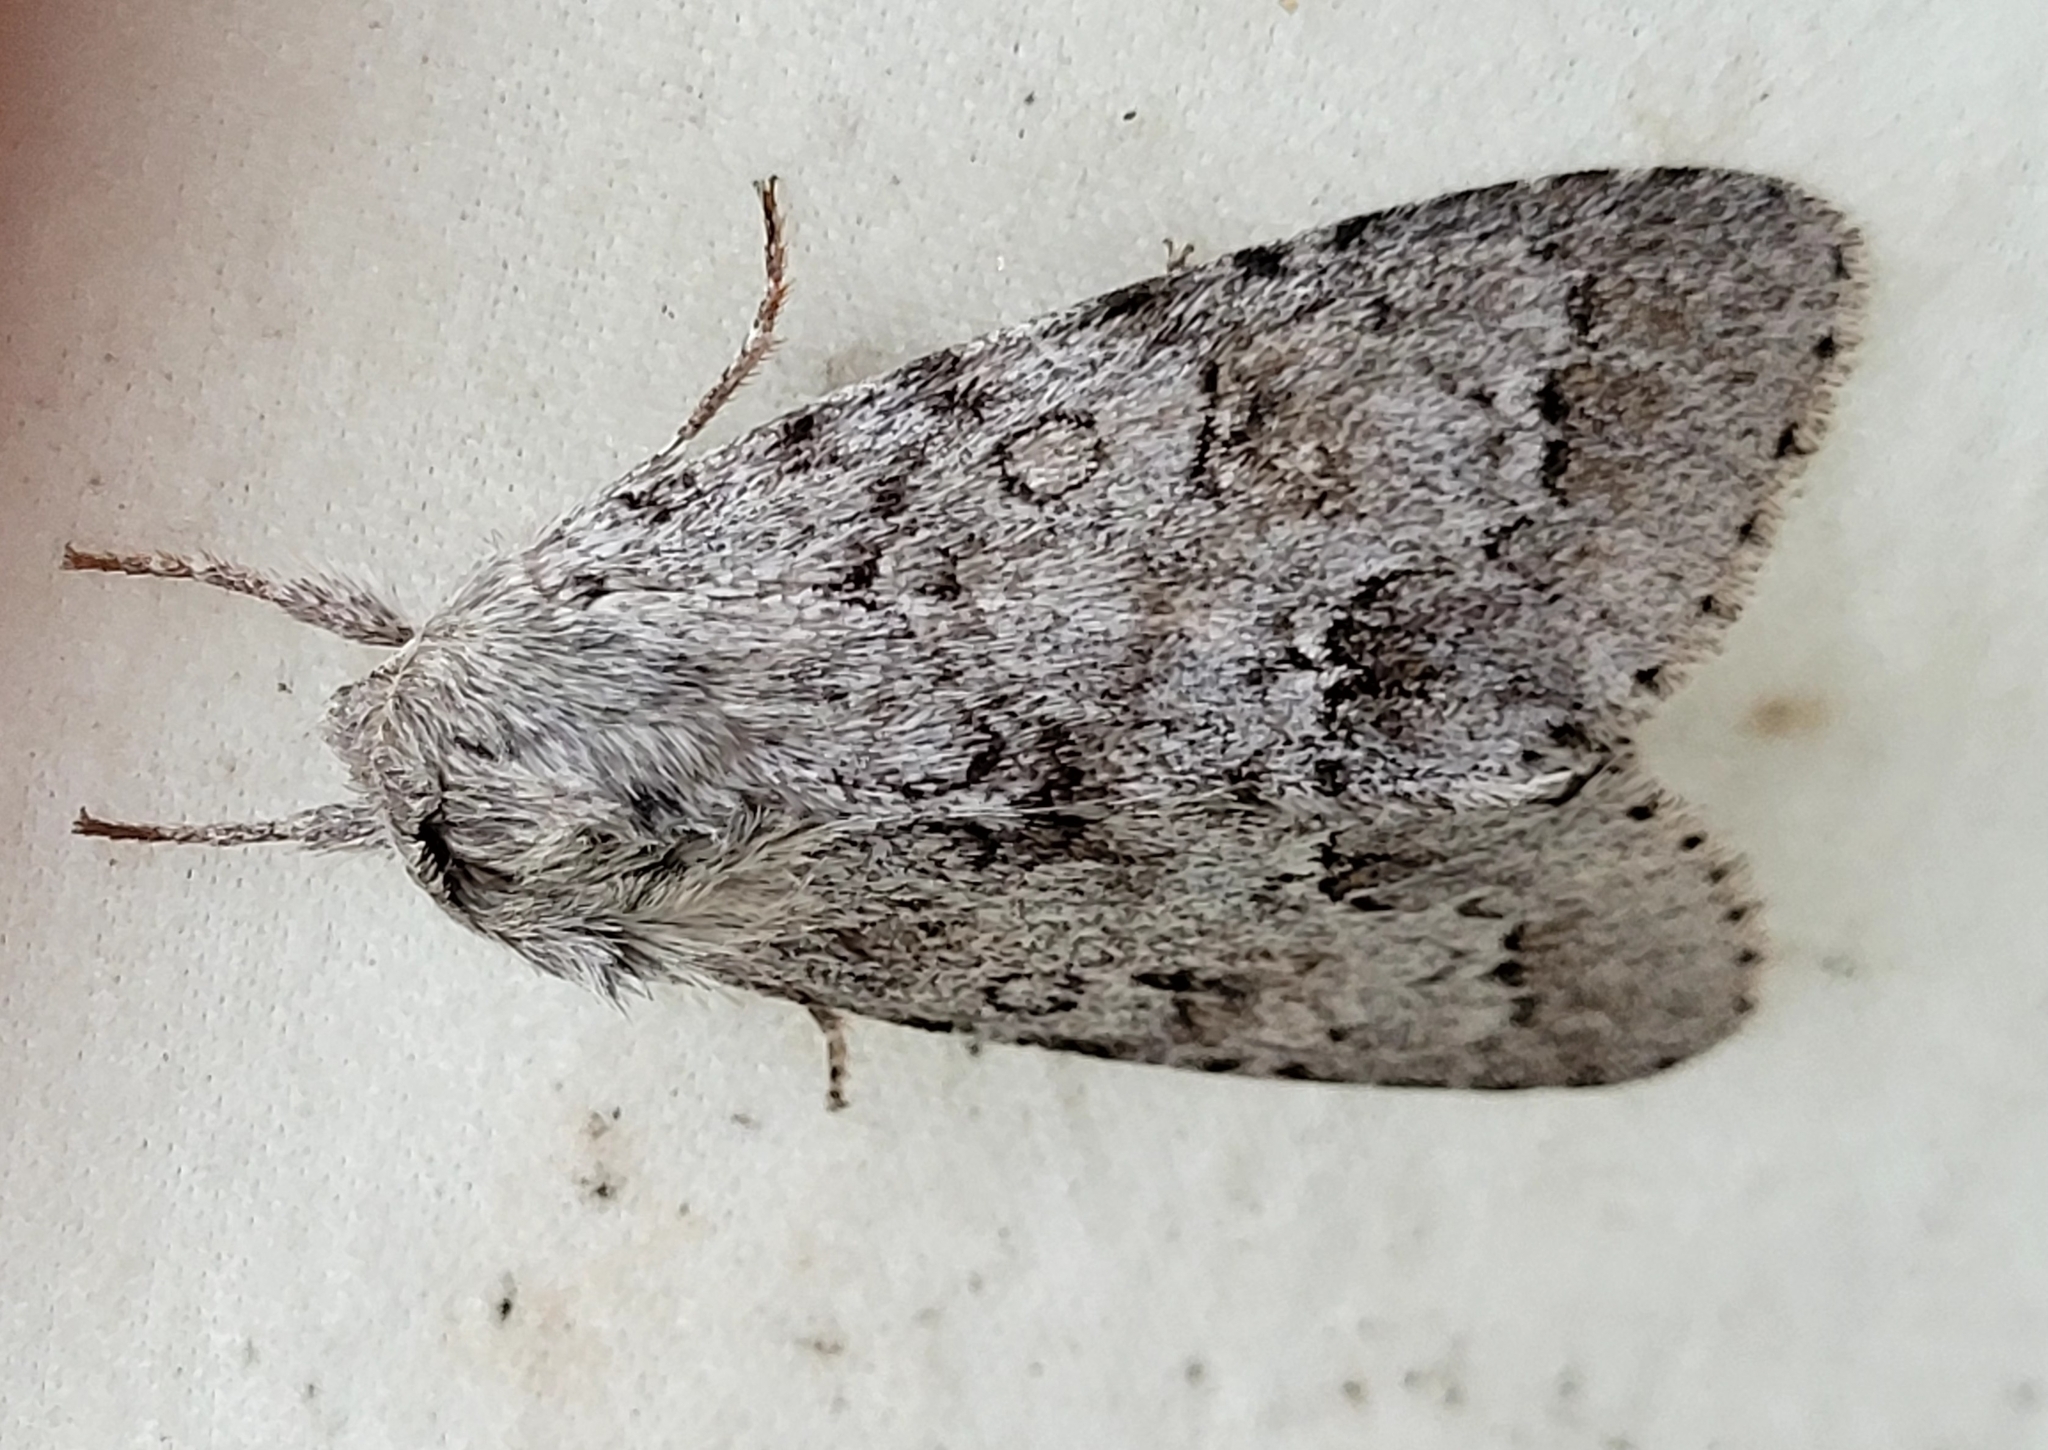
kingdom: Animalia
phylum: Arthropoda
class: Insecta
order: Lepidoptera
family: Noctuidae
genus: Acronicta
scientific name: Acronicta insita
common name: Large gray dagger
